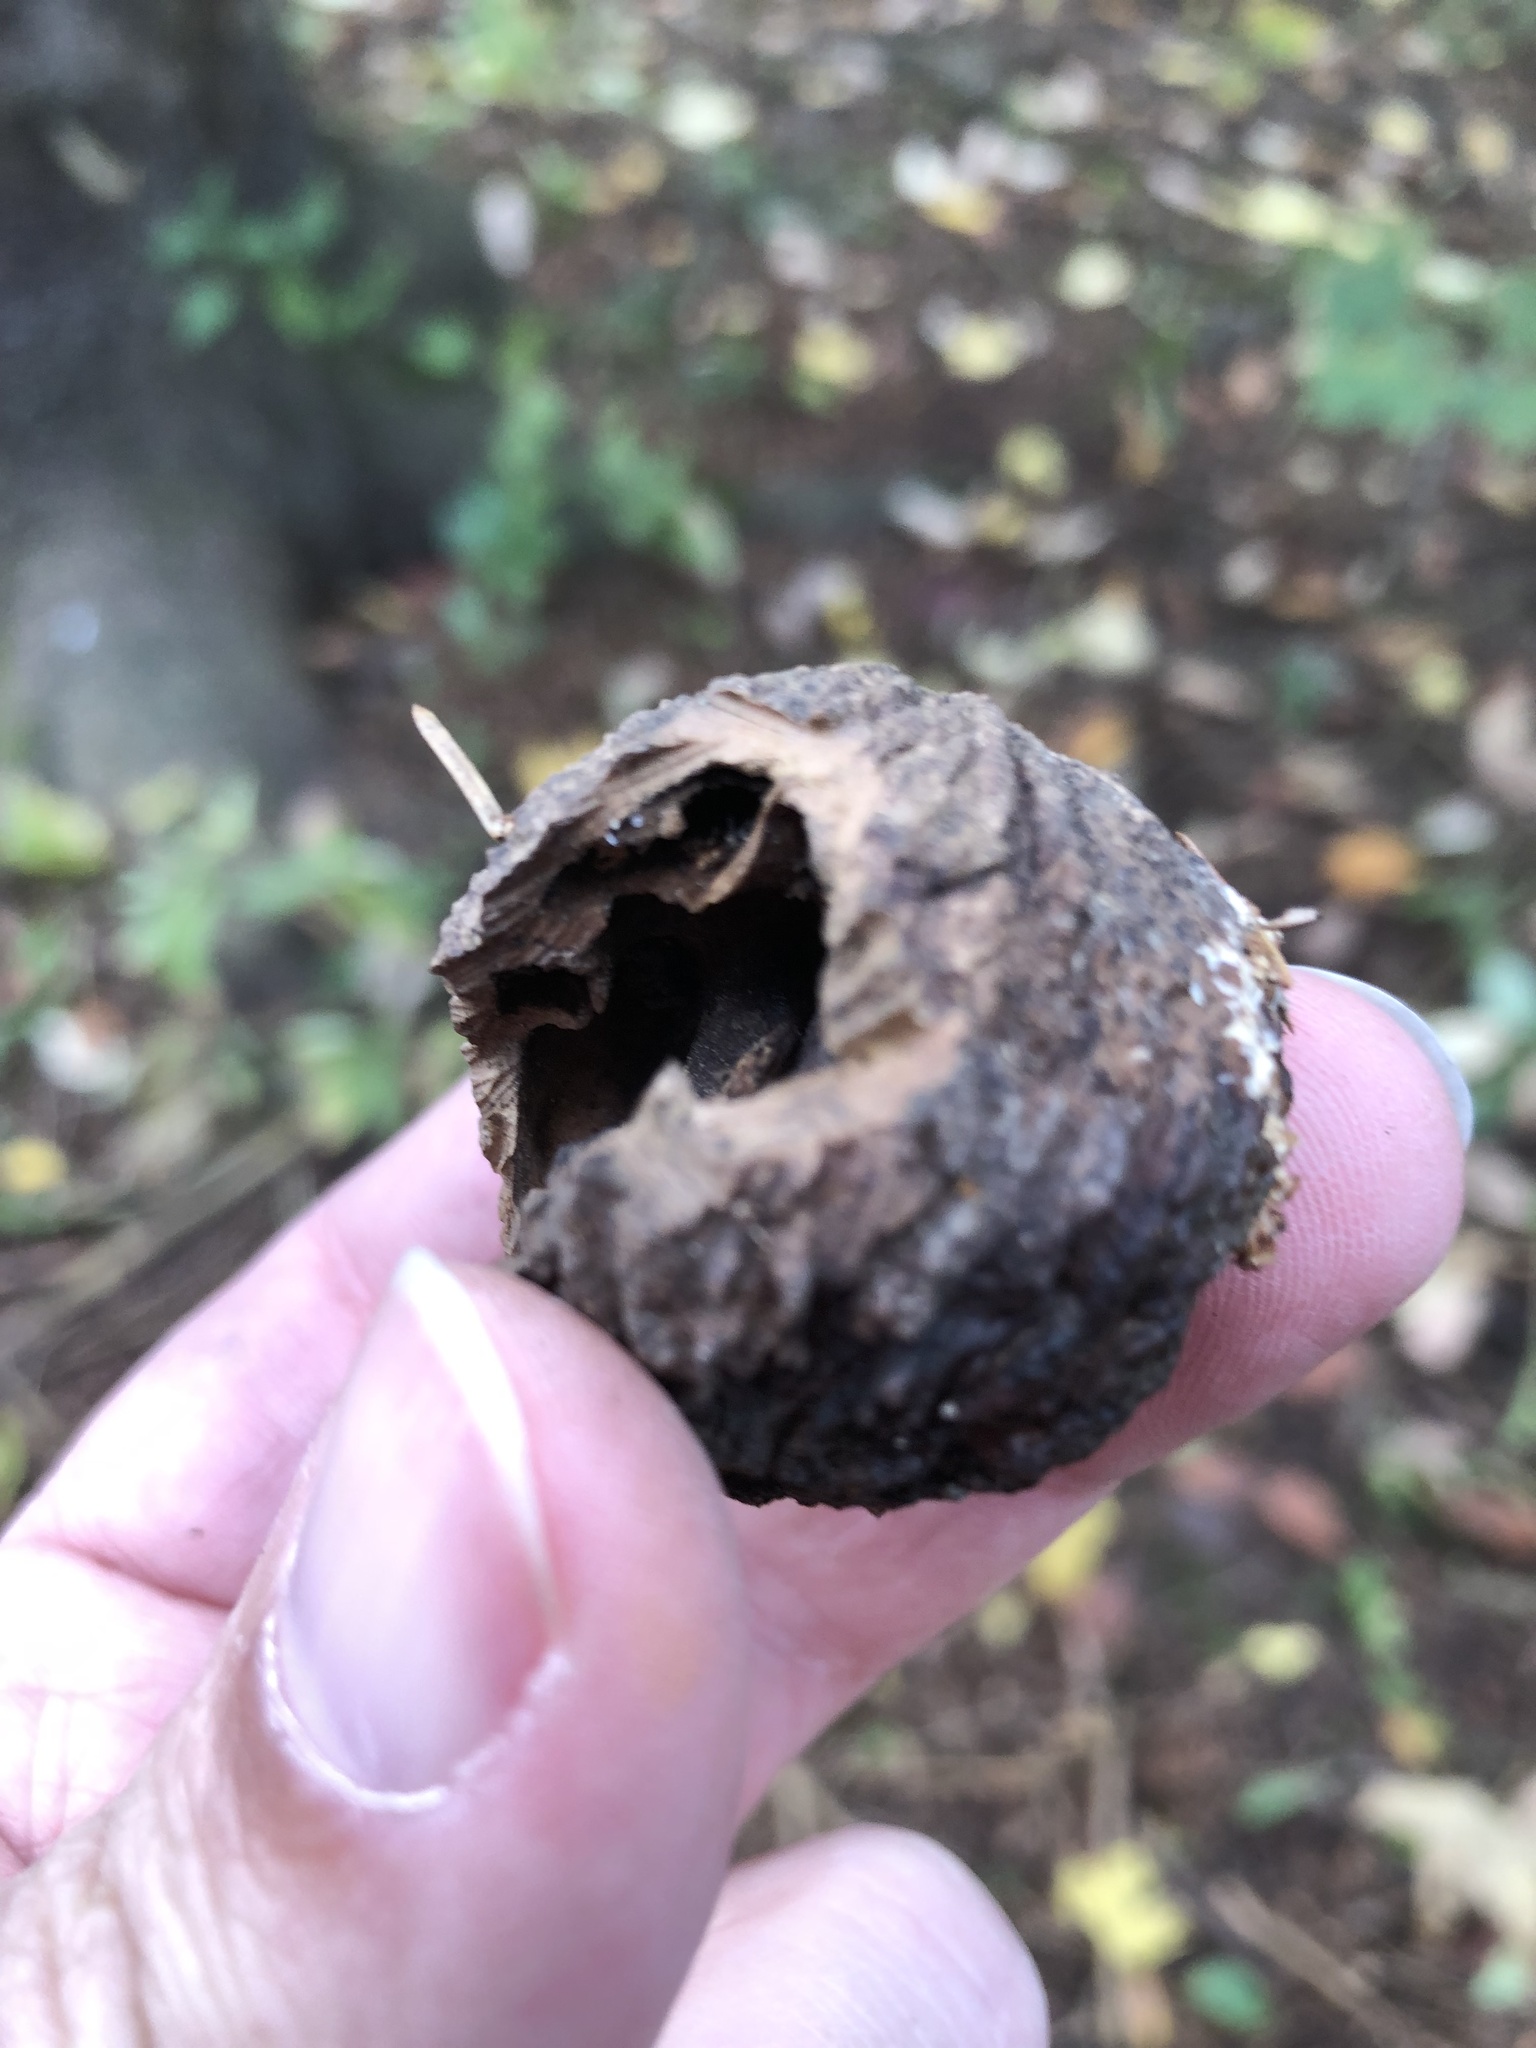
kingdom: Plantae
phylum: Tracheophyta
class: Magnoliopsida
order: Fagales
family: Juglandaceae
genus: Juglans
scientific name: Juglans nigra
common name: Black walnut
